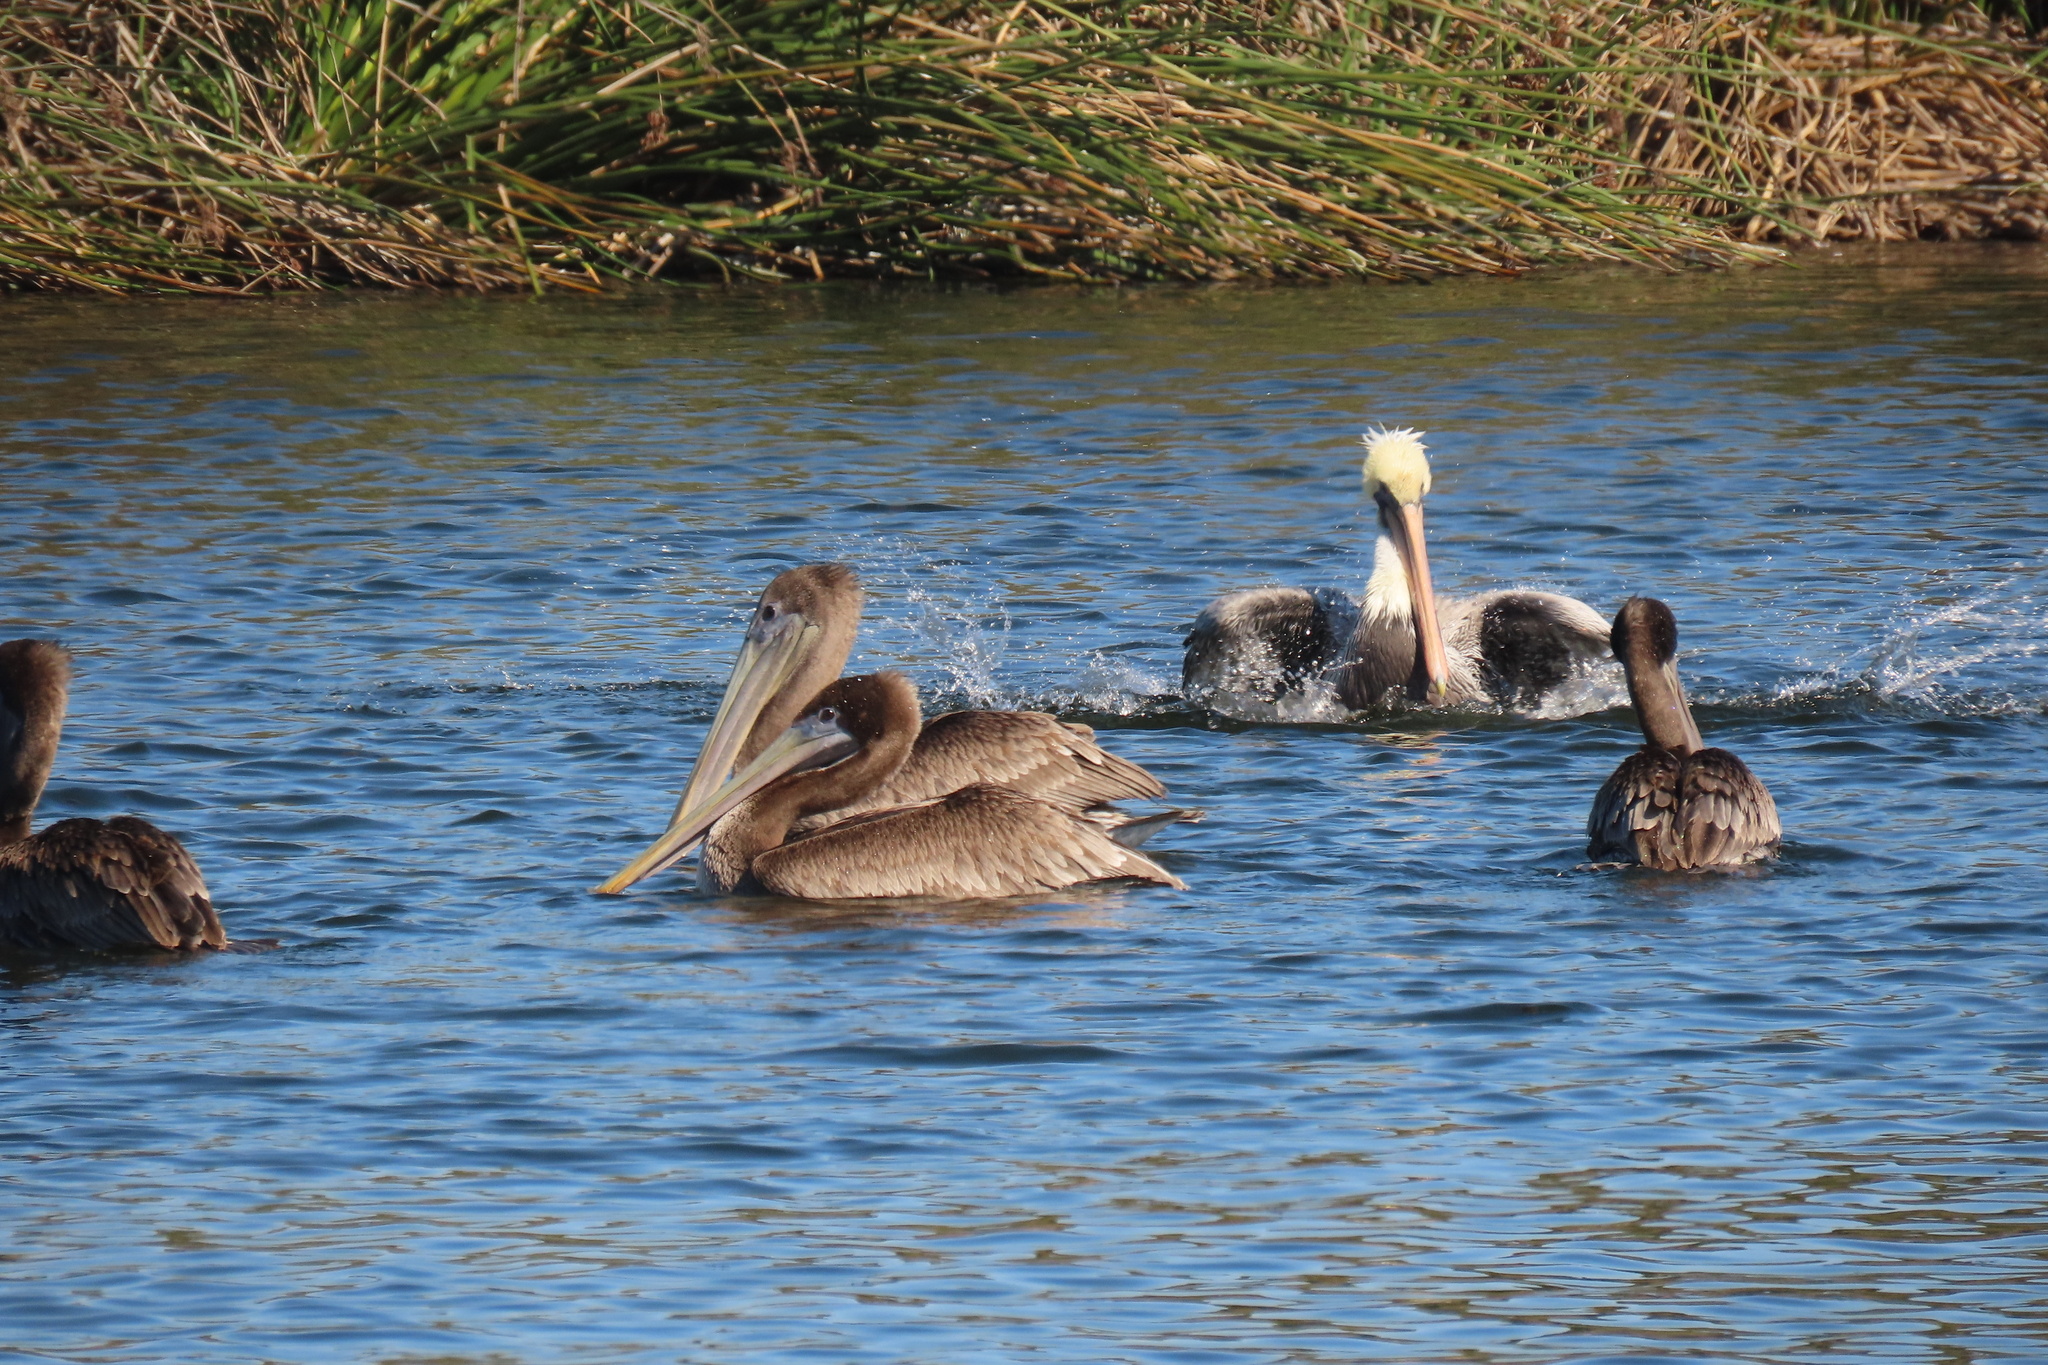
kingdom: Animalia
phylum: Chordata
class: Aves
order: Pelecaniformes
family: Pelecanidae
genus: Pelecanus
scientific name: Pelecanus occidentalis
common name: Brown pelican
